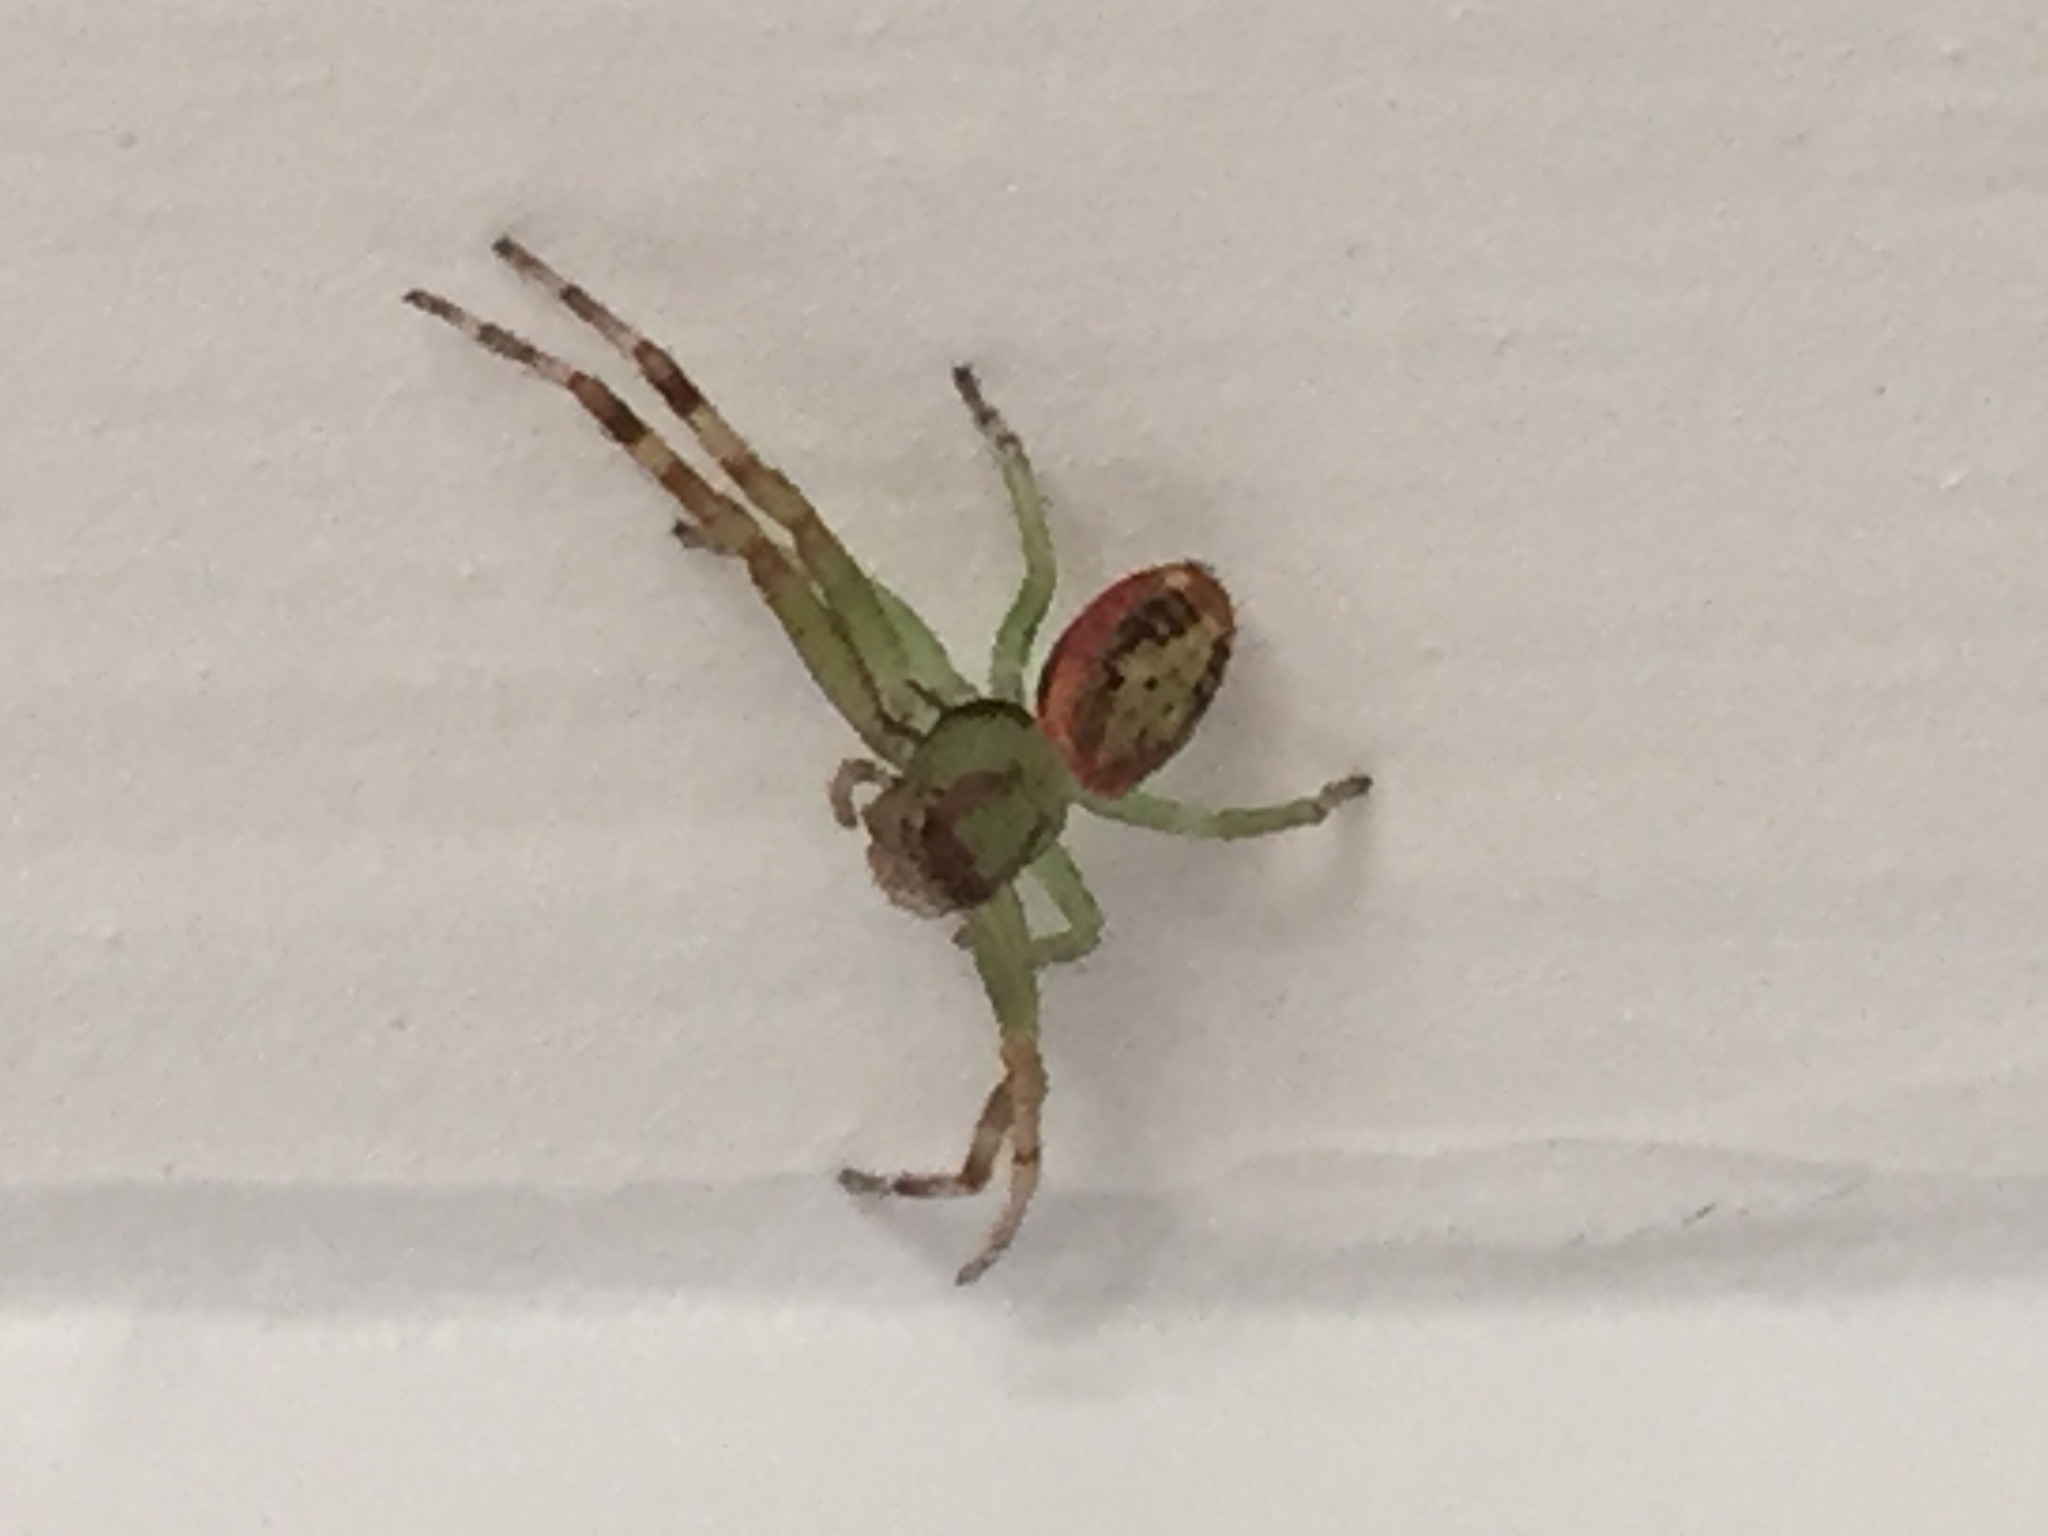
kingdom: Animalia
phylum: Arthropoda
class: Arachnida
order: Araneae
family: Thomisidae
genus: Diaea
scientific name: Diaea ambara
